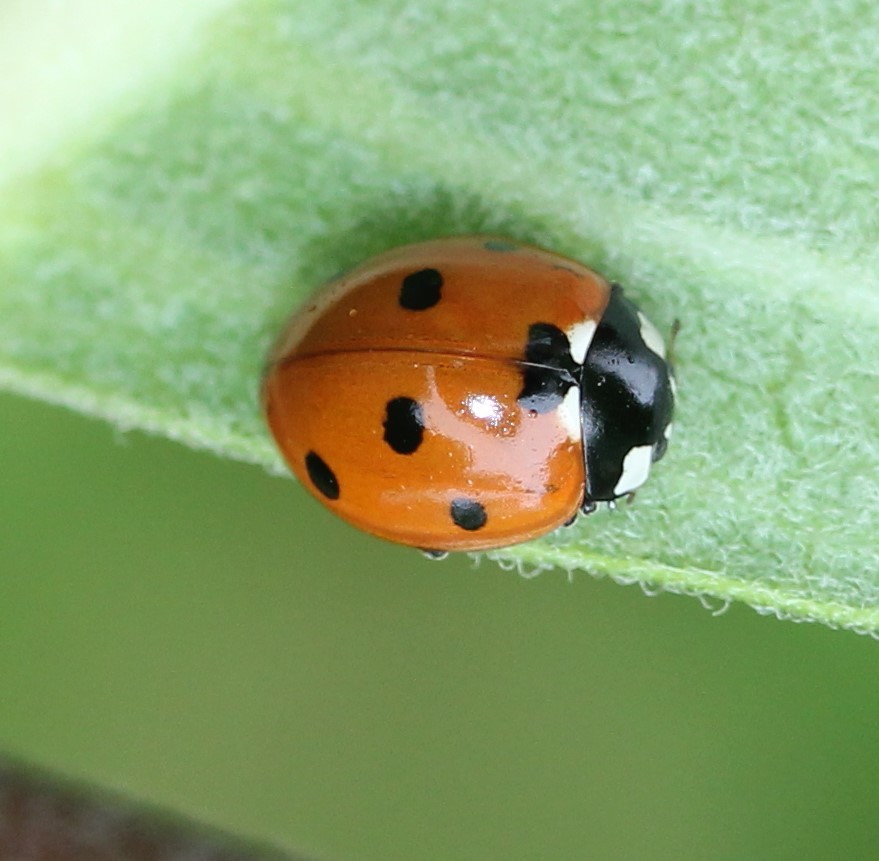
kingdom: Animalia
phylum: Arthropoda
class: Insecta
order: Coleoptera
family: Coccinellidae
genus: Coccinella
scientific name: Coccinella septempunctata
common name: Sevenspotted lady beetle
